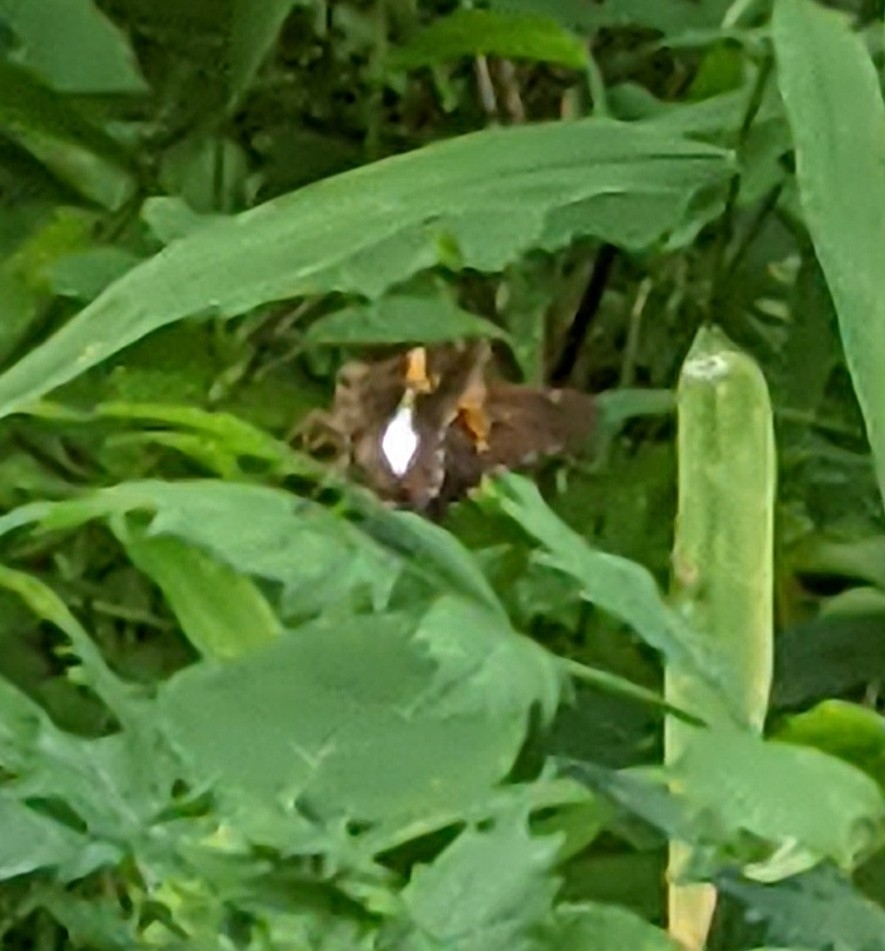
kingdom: Animalia
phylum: Arthropoda
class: Insecta
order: Lepidoptera
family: Hesperiidae
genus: Epargyreus
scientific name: Epargyreus clarus
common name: Silver-spotted skipper
